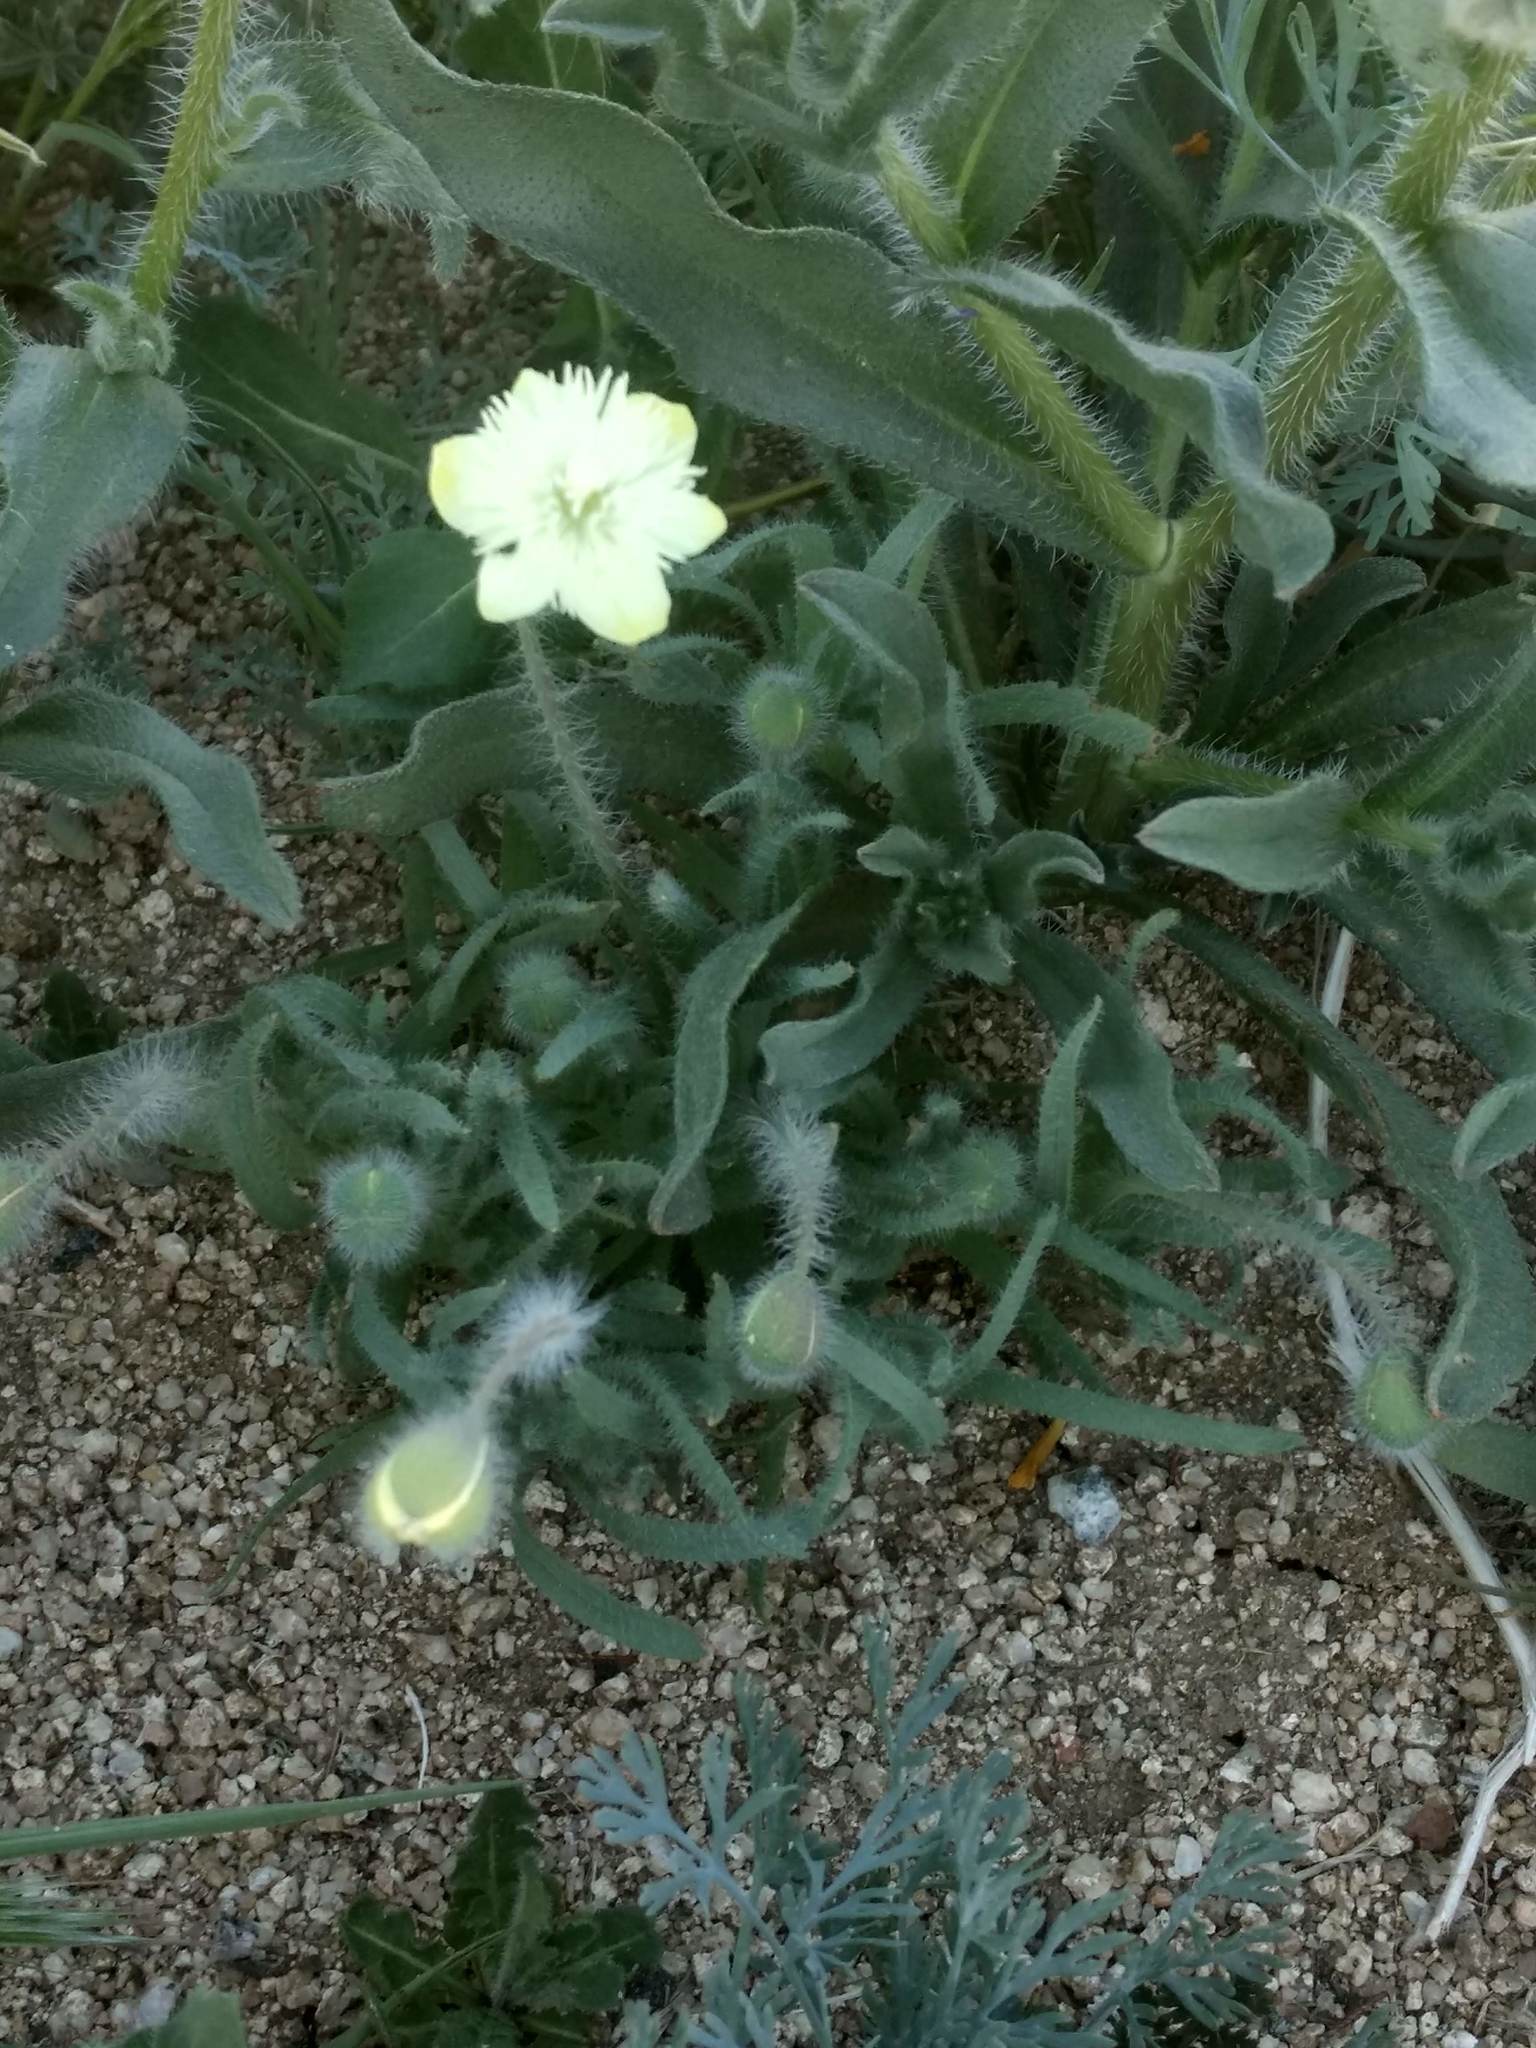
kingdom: Plantae
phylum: Tracheophyta
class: Magnoliopsida
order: Ranunculales
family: Papaveraceae
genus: Platystemon
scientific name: Platystemon californicus
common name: Cream-cups
